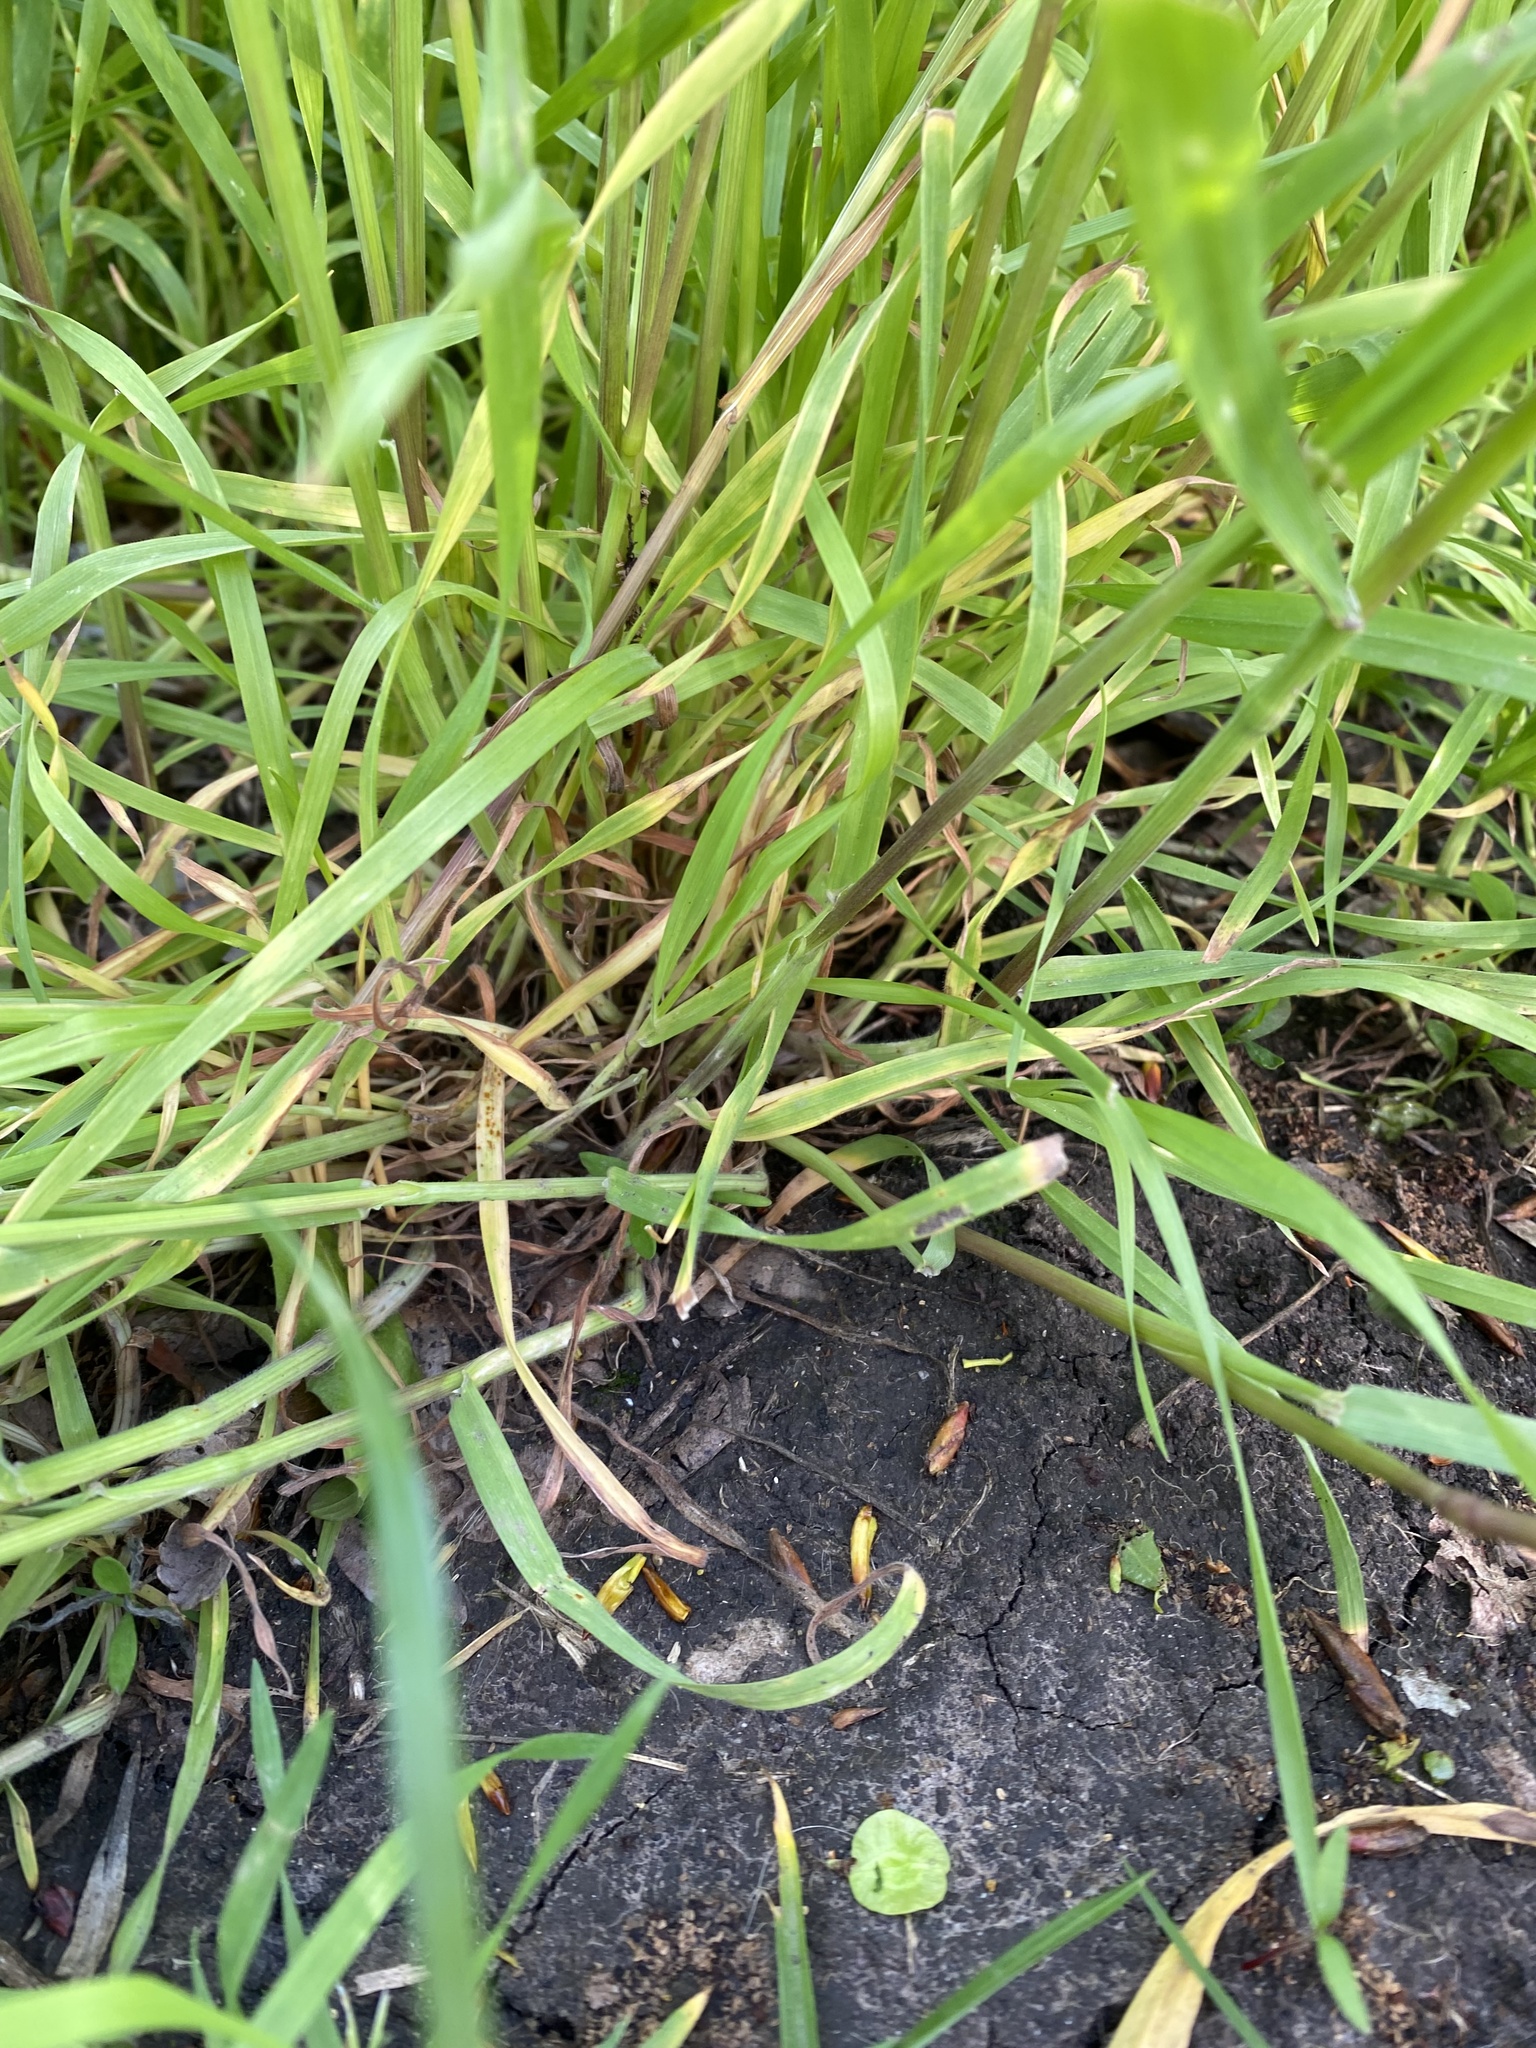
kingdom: Plantae
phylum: Tracheophyta
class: Liliopsida
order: Poales
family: Poaceae
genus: Bromus
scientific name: Bromus tectorum
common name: Cheatgrass
